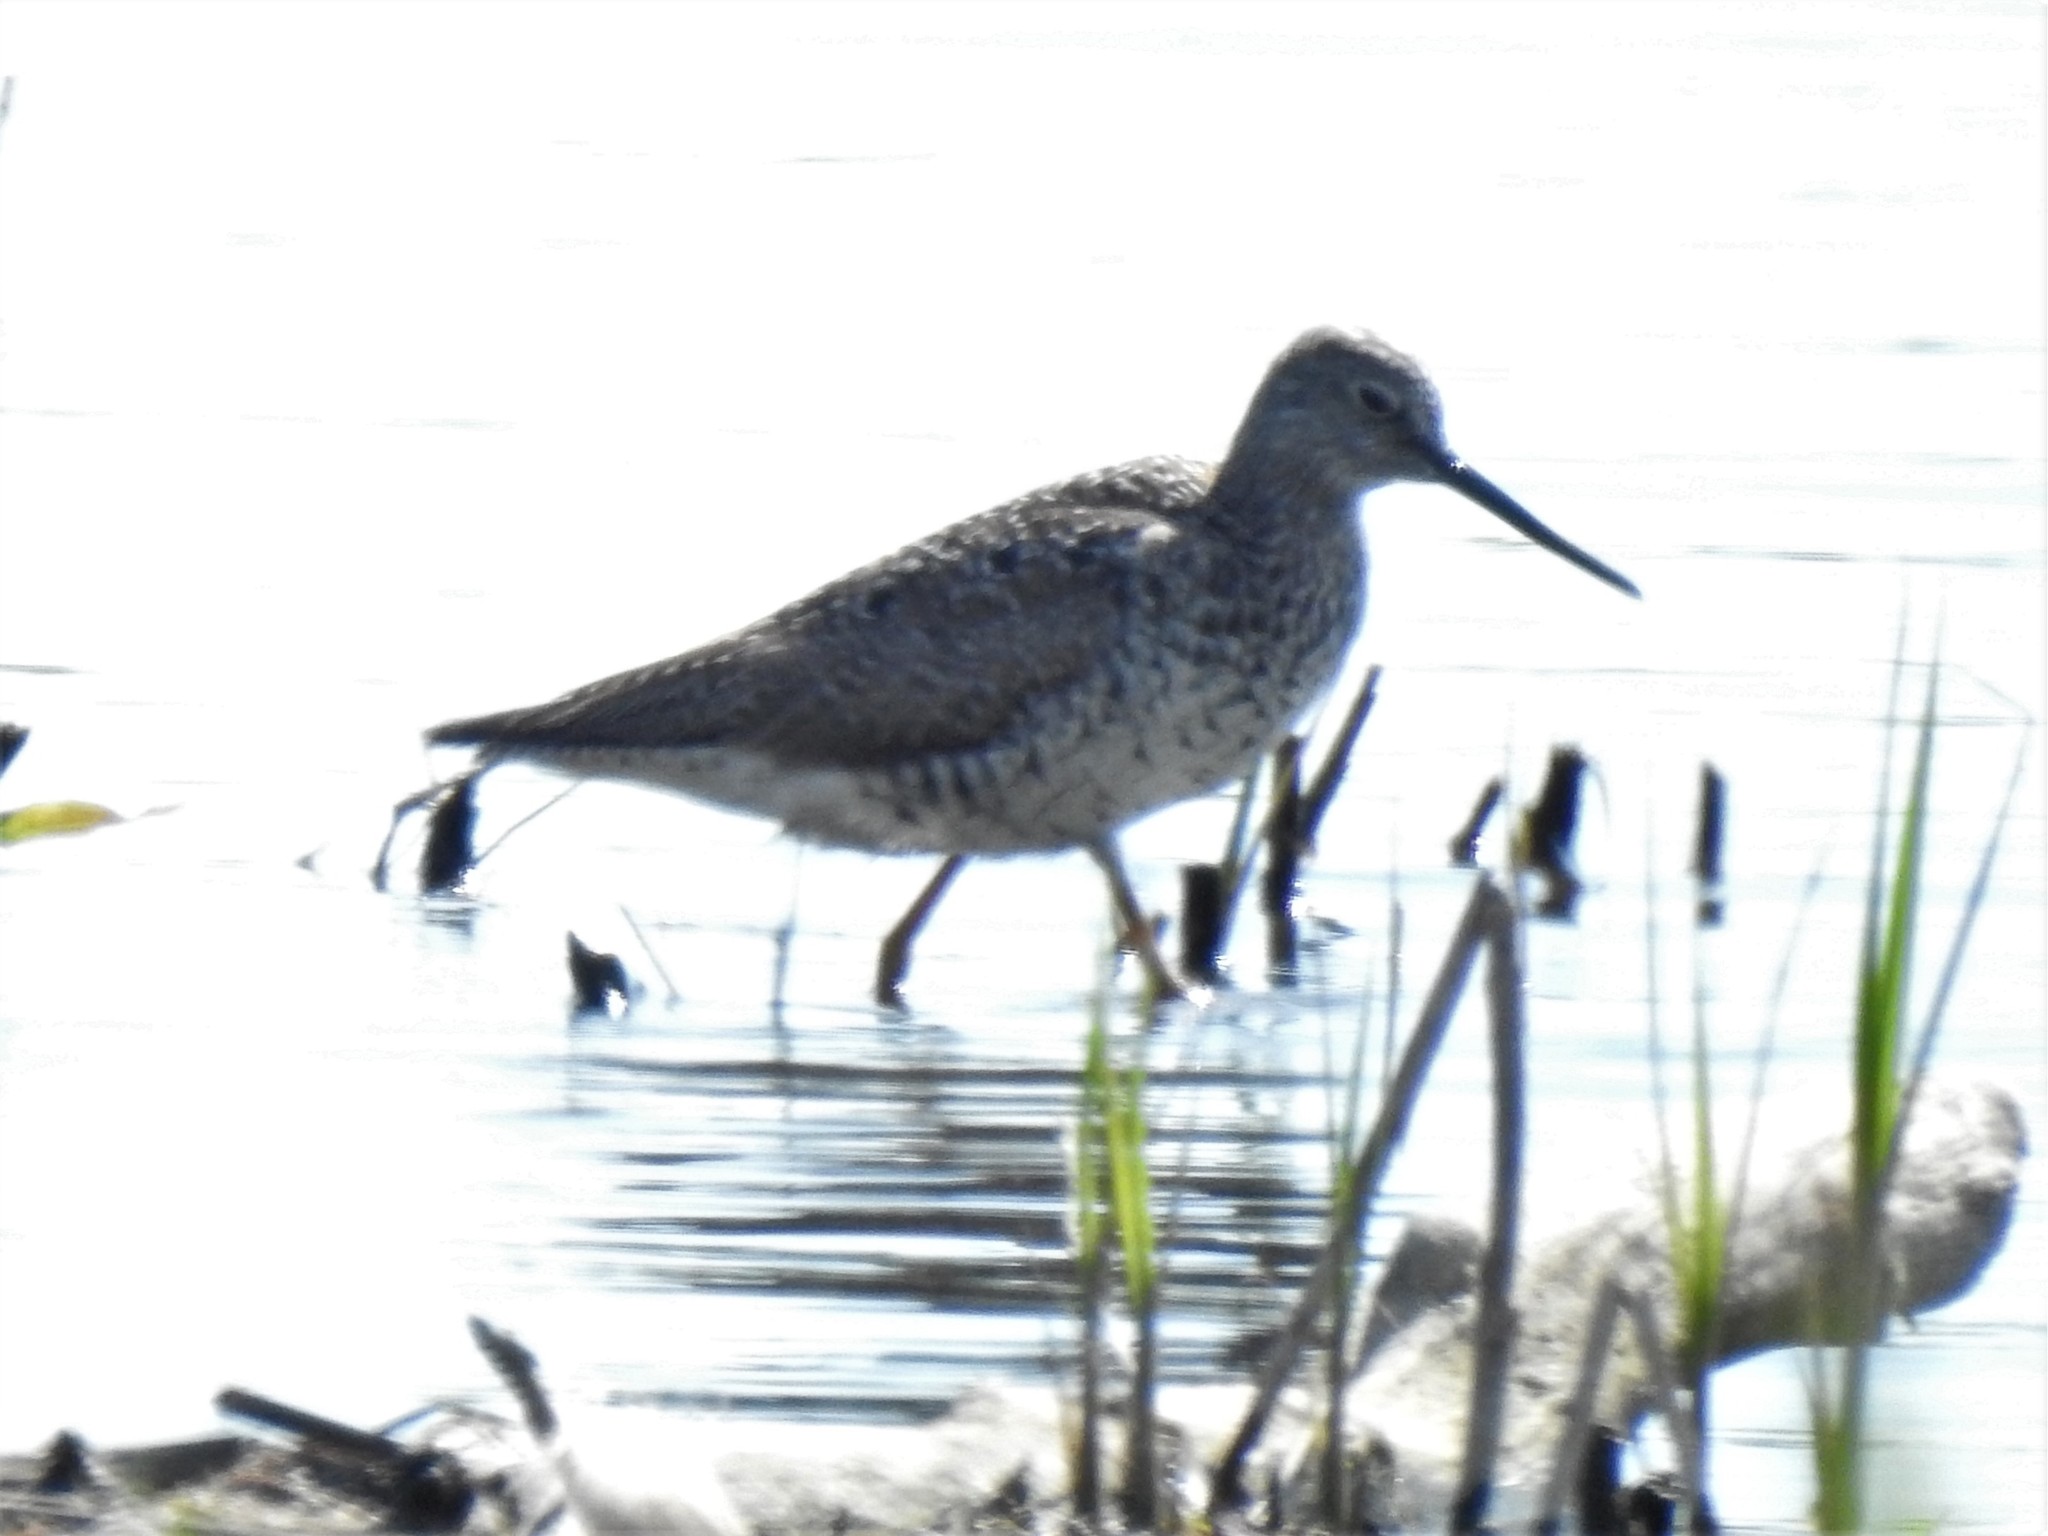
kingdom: Animalia
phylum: Chordata
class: Aves
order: Charadriiformes
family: Scolopacidae
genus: Tringa
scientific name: Tringa melanoleuca
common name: Greater yellowlegs
